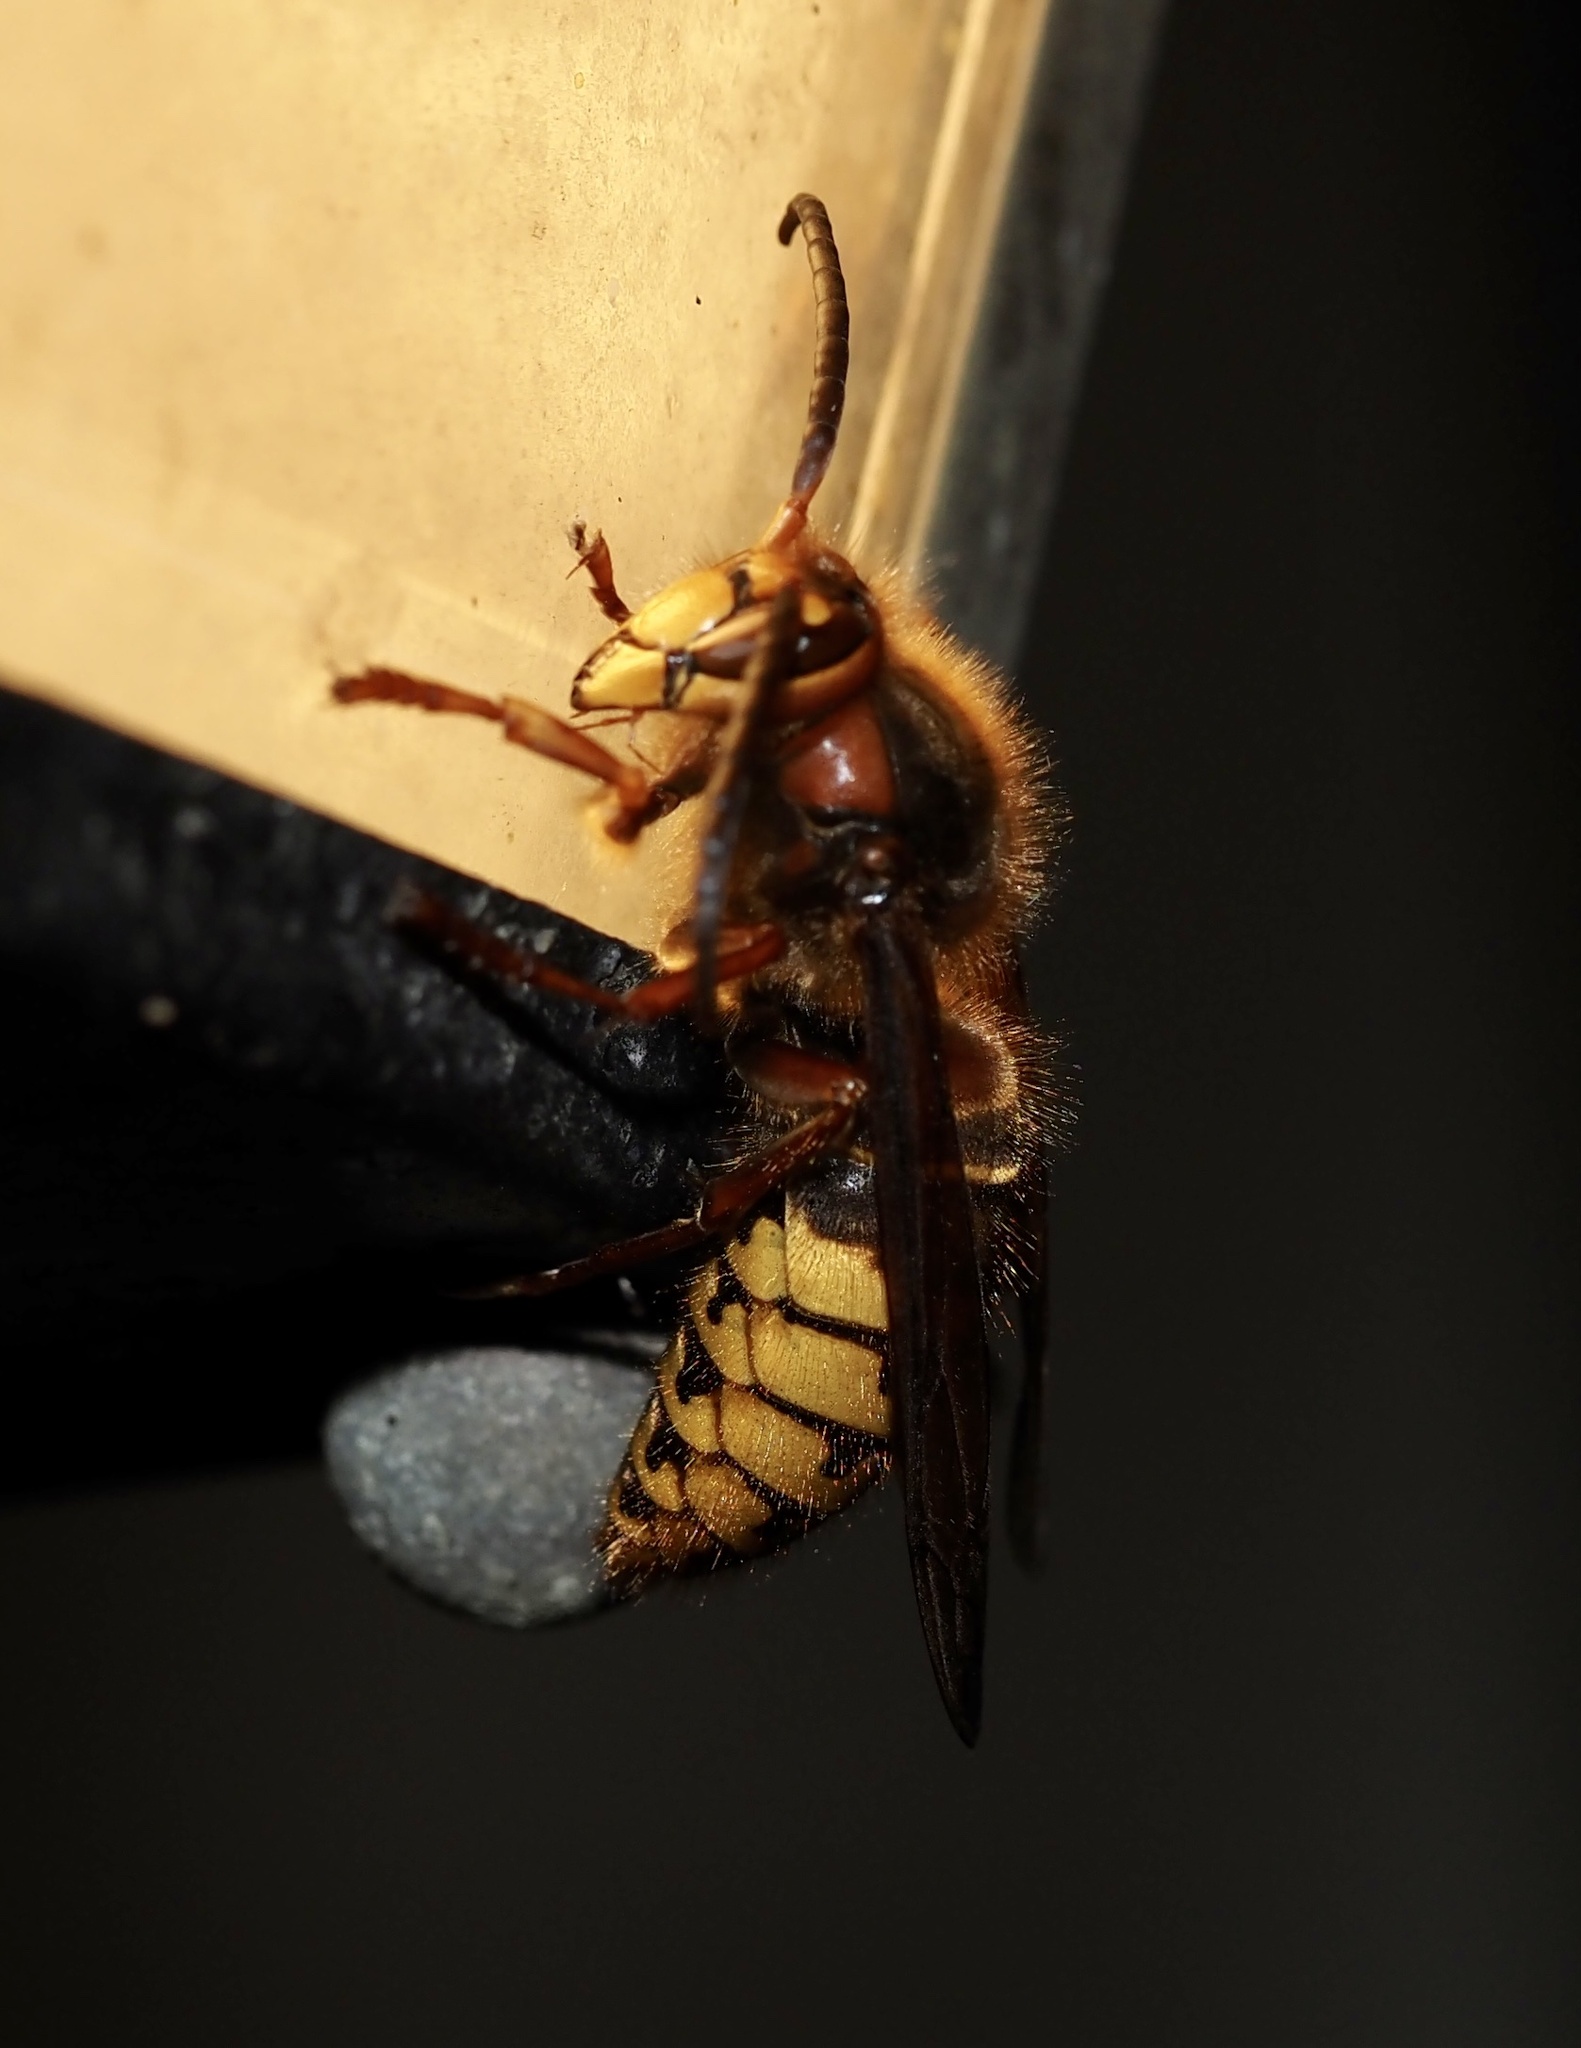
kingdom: Animalia
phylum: Arthropoda
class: Insecta
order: Hymenoptera
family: Vespidae
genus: Vespa
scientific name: Vespa crabro
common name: Hornet
